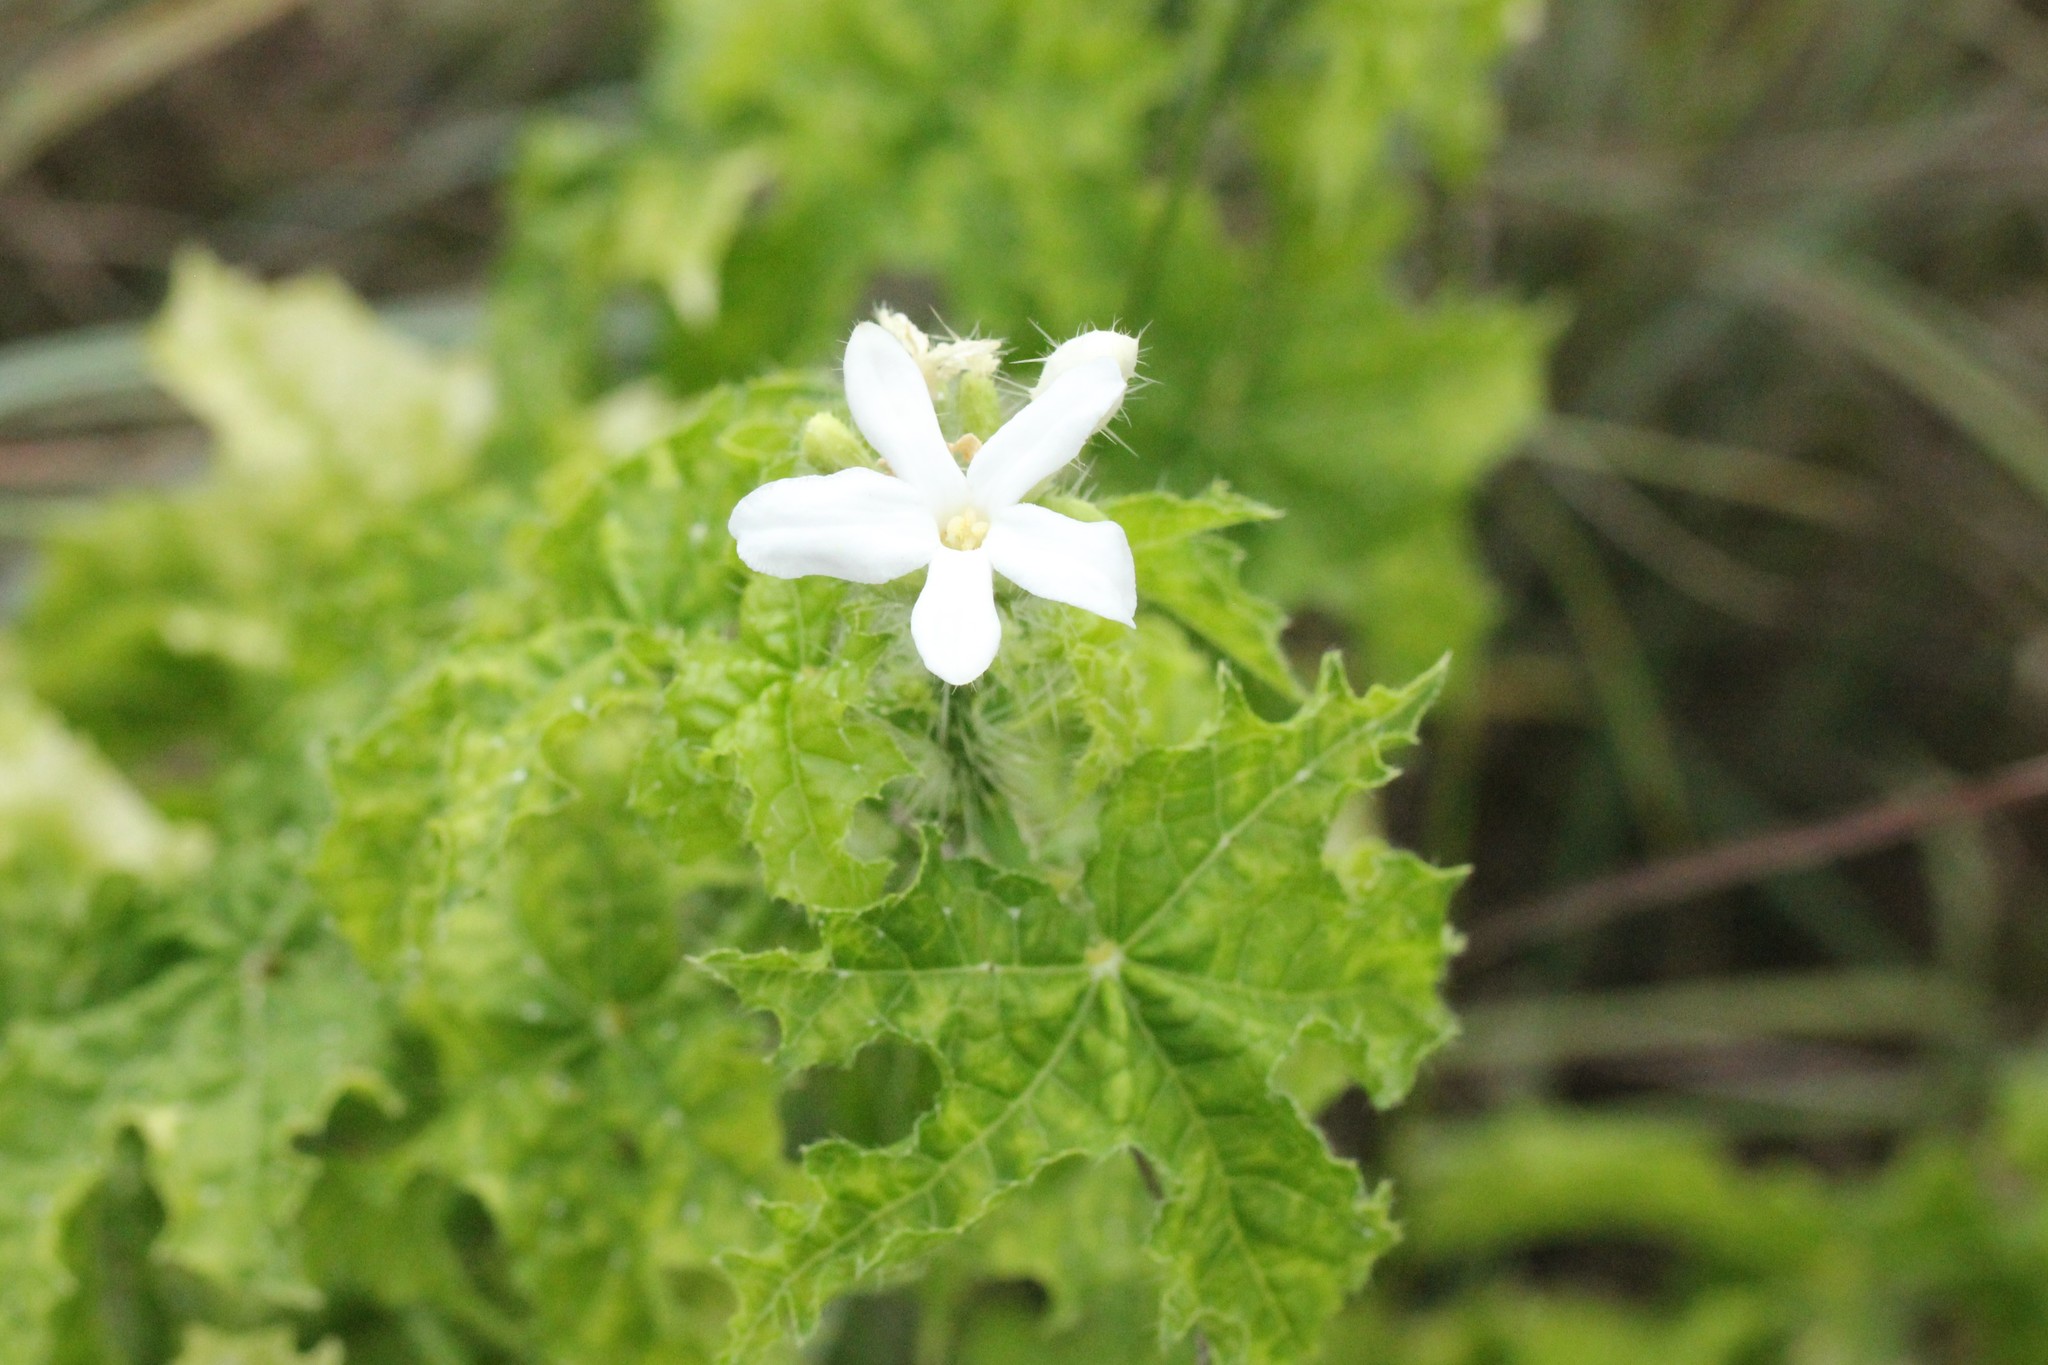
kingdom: Plantae
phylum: Tracheophyta
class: Magnoliopsida
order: Malpighiales
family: Euphorbiaceae
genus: Cnidoscolus
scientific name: Cnidoscolus texanus
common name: Texas bull-nettle
